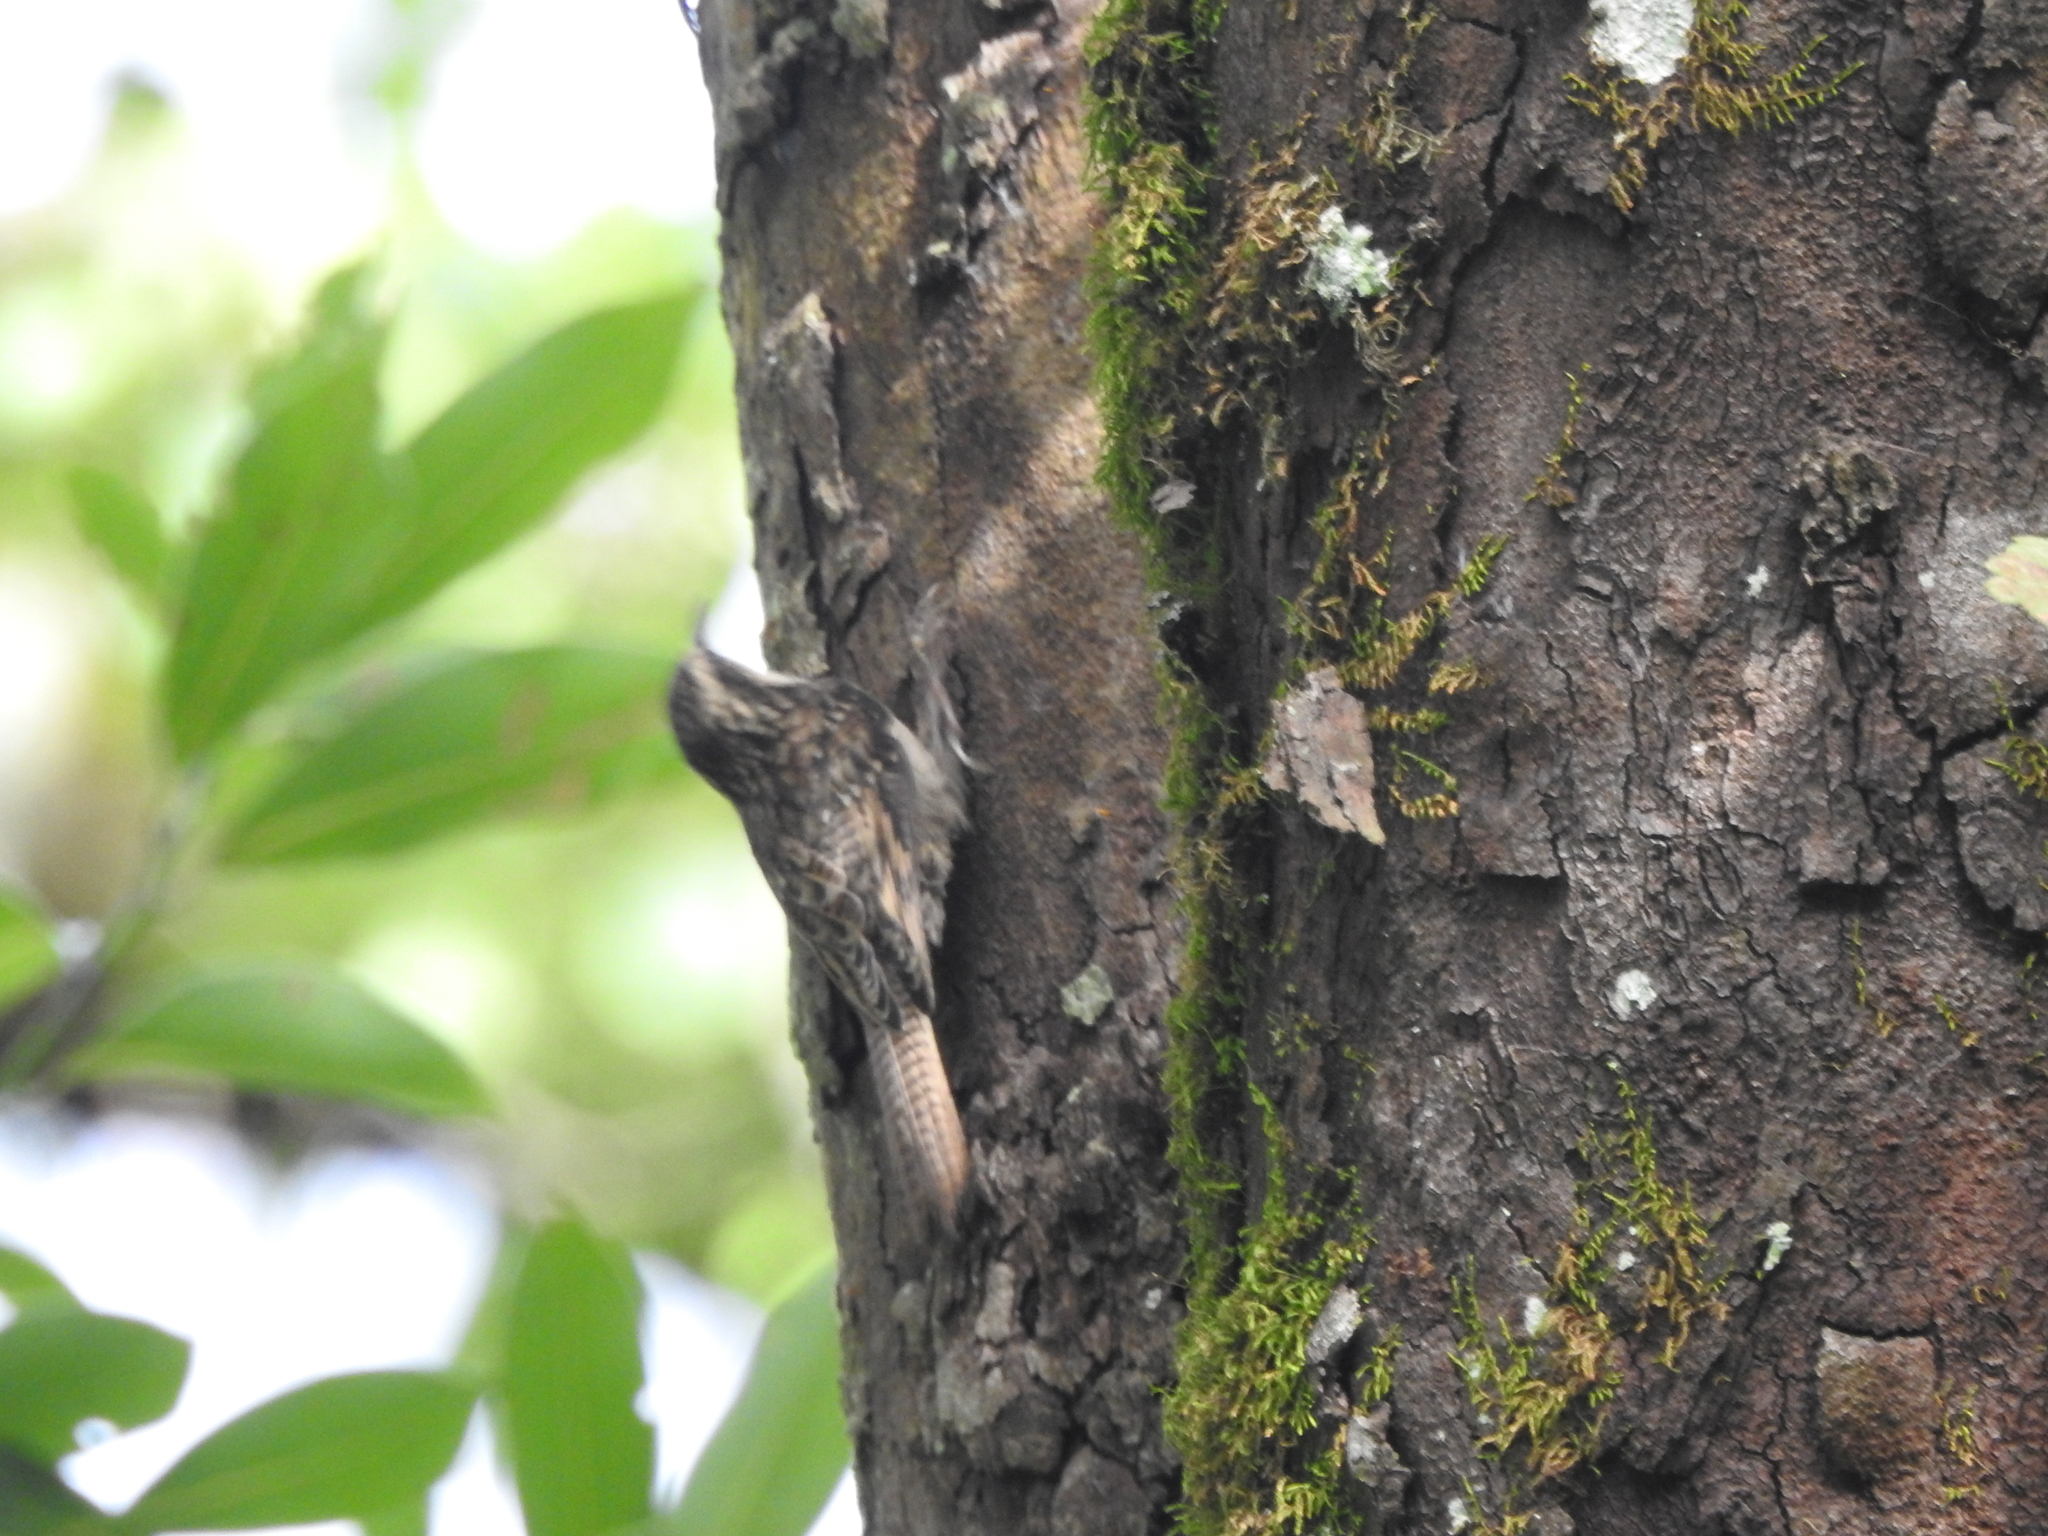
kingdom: Animalia
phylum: Chordata
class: Aves
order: Passeriformes
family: Certhiidae
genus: Certhia
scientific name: Certhia himalayana
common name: Bar-tailed treecreeper
